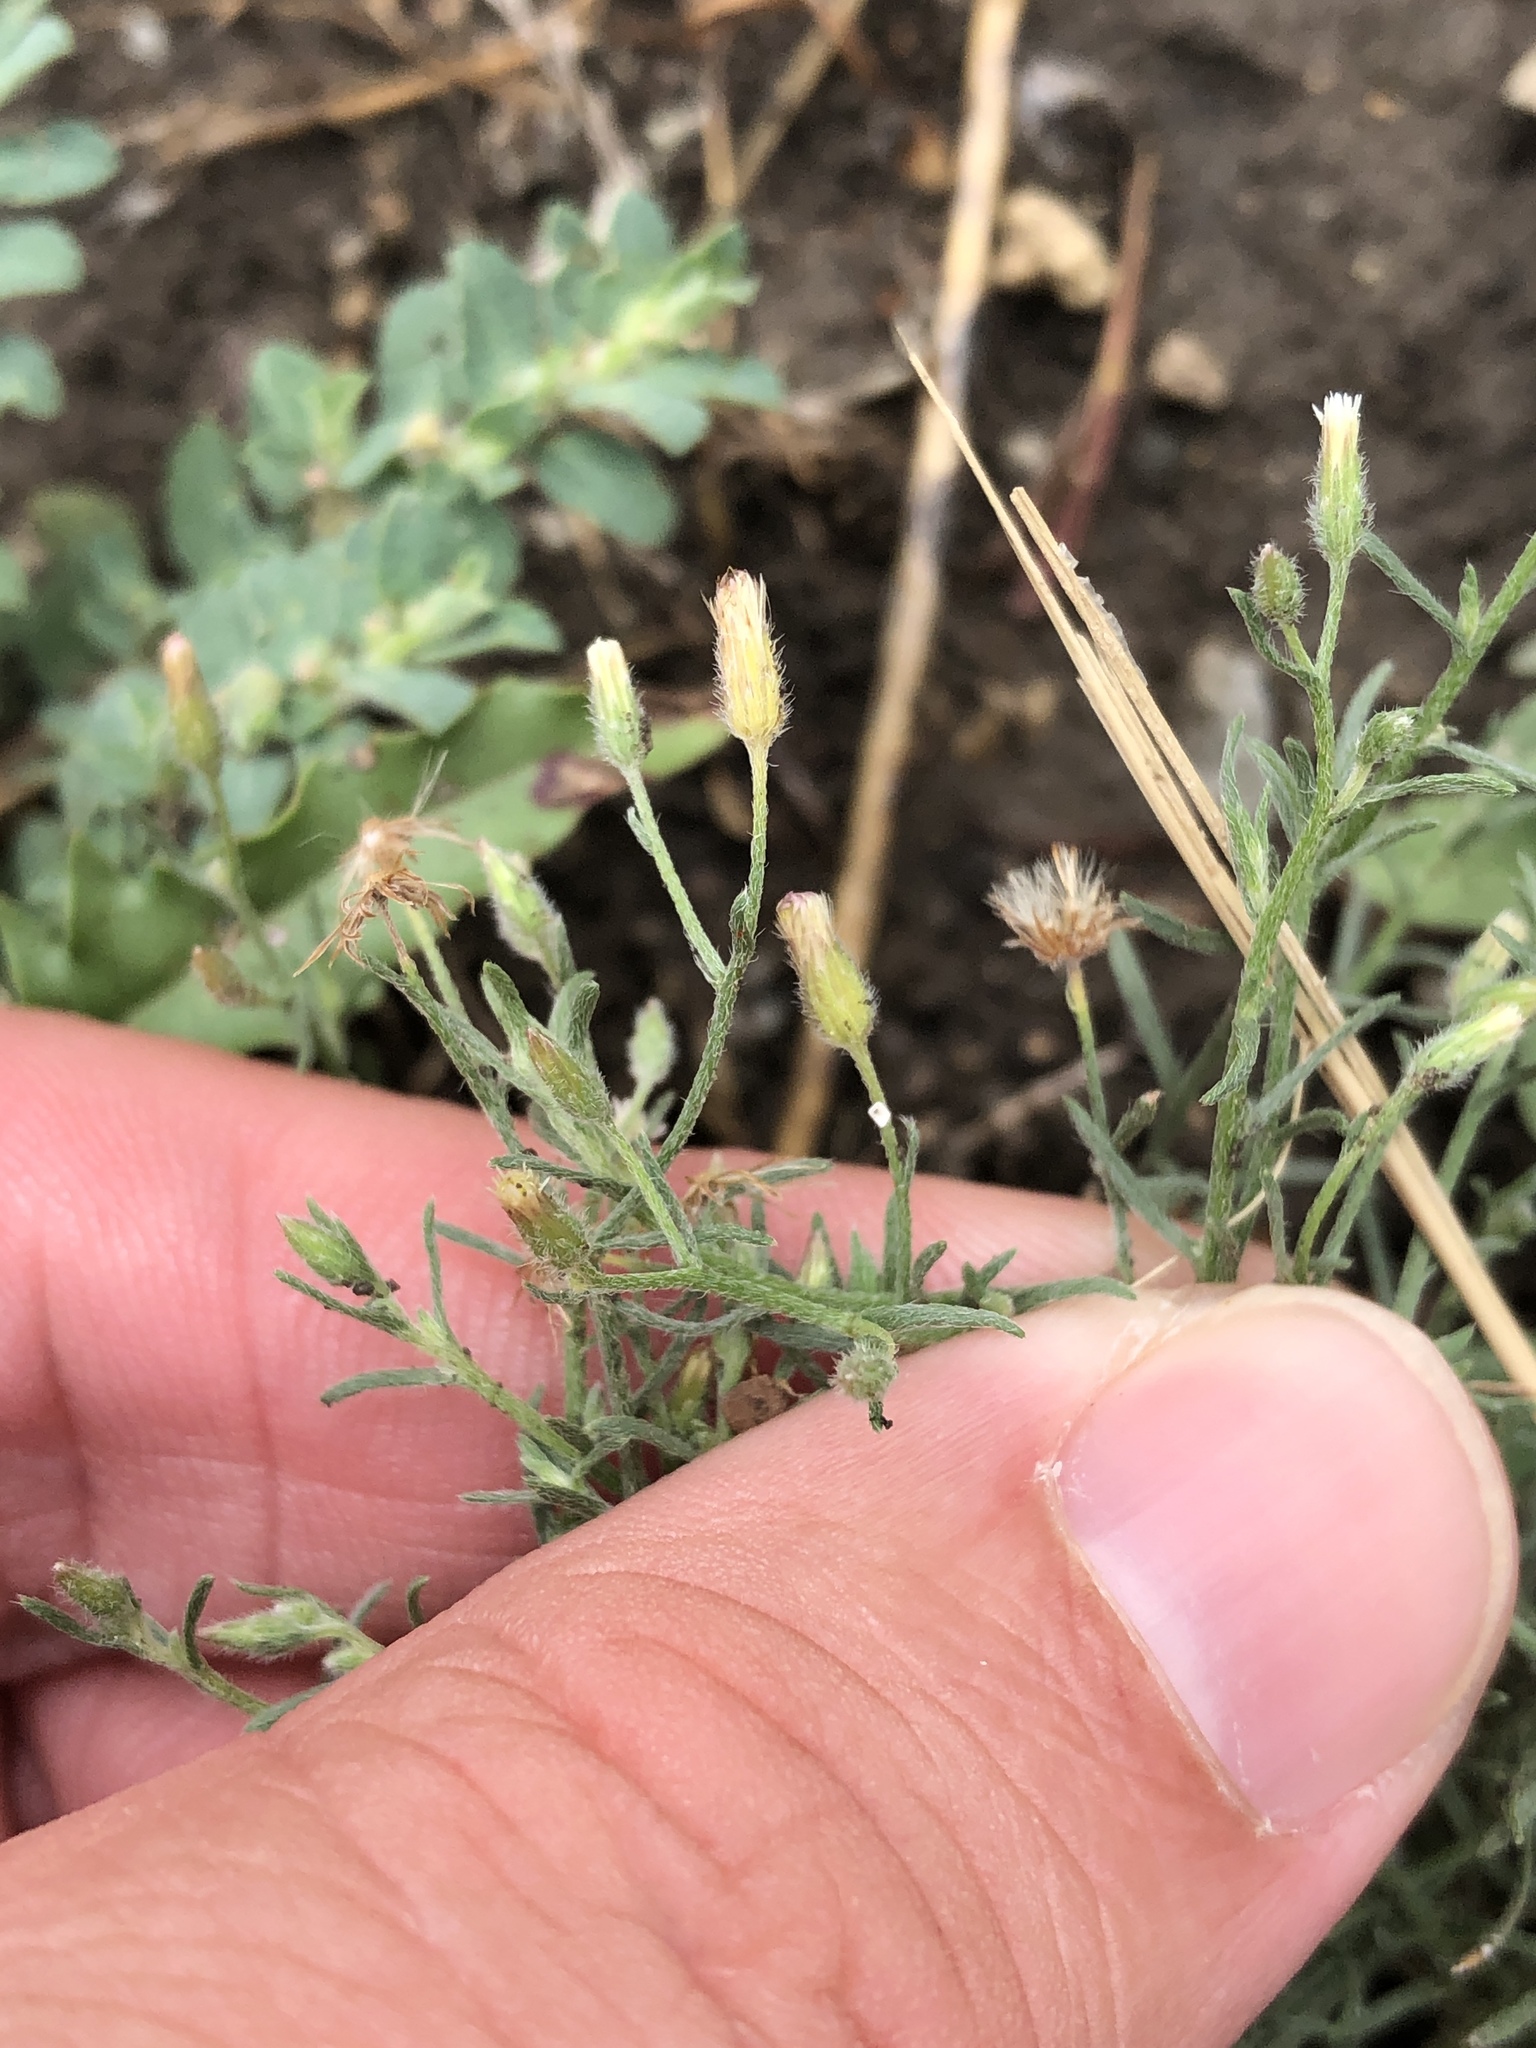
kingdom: Plantae
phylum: Tracheophyta
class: Magnoliopsida
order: Asterales
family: Asteraceae
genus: Erigeron
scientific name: Erigeron divaricatus
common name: Dwarf conyza
